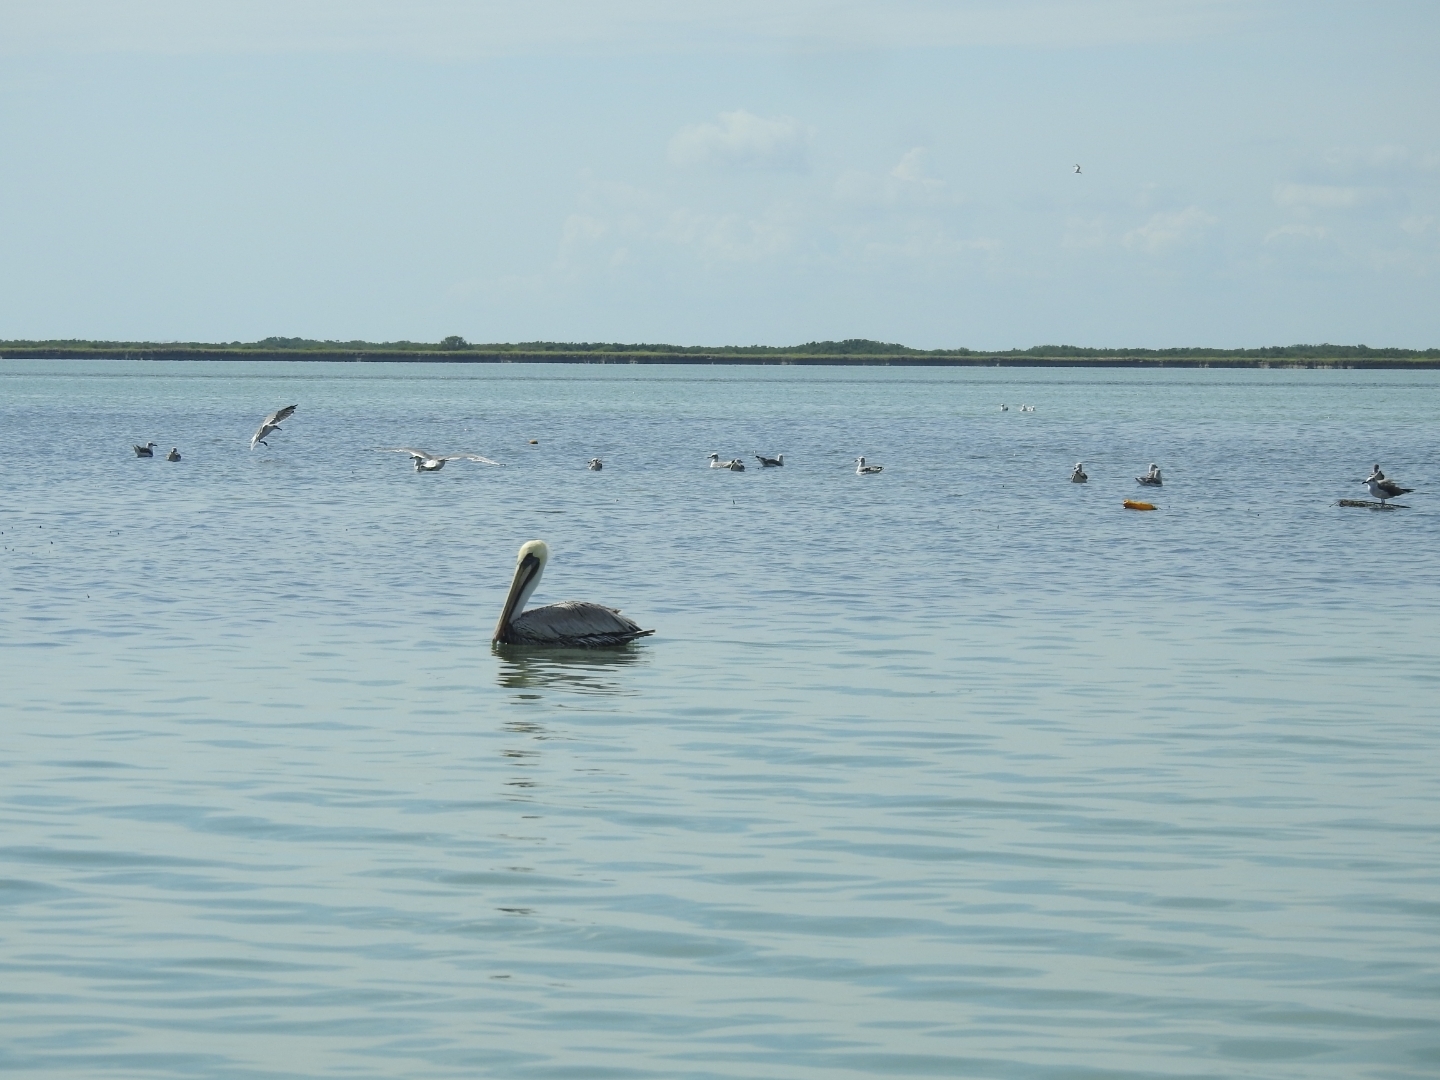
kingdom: Animalia
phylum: Chordata
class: Aves
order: Pelecaniformes
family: Pelecanidae
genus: Pelecanus
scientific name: Pelecanus occidentalis
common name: Brown pelican
